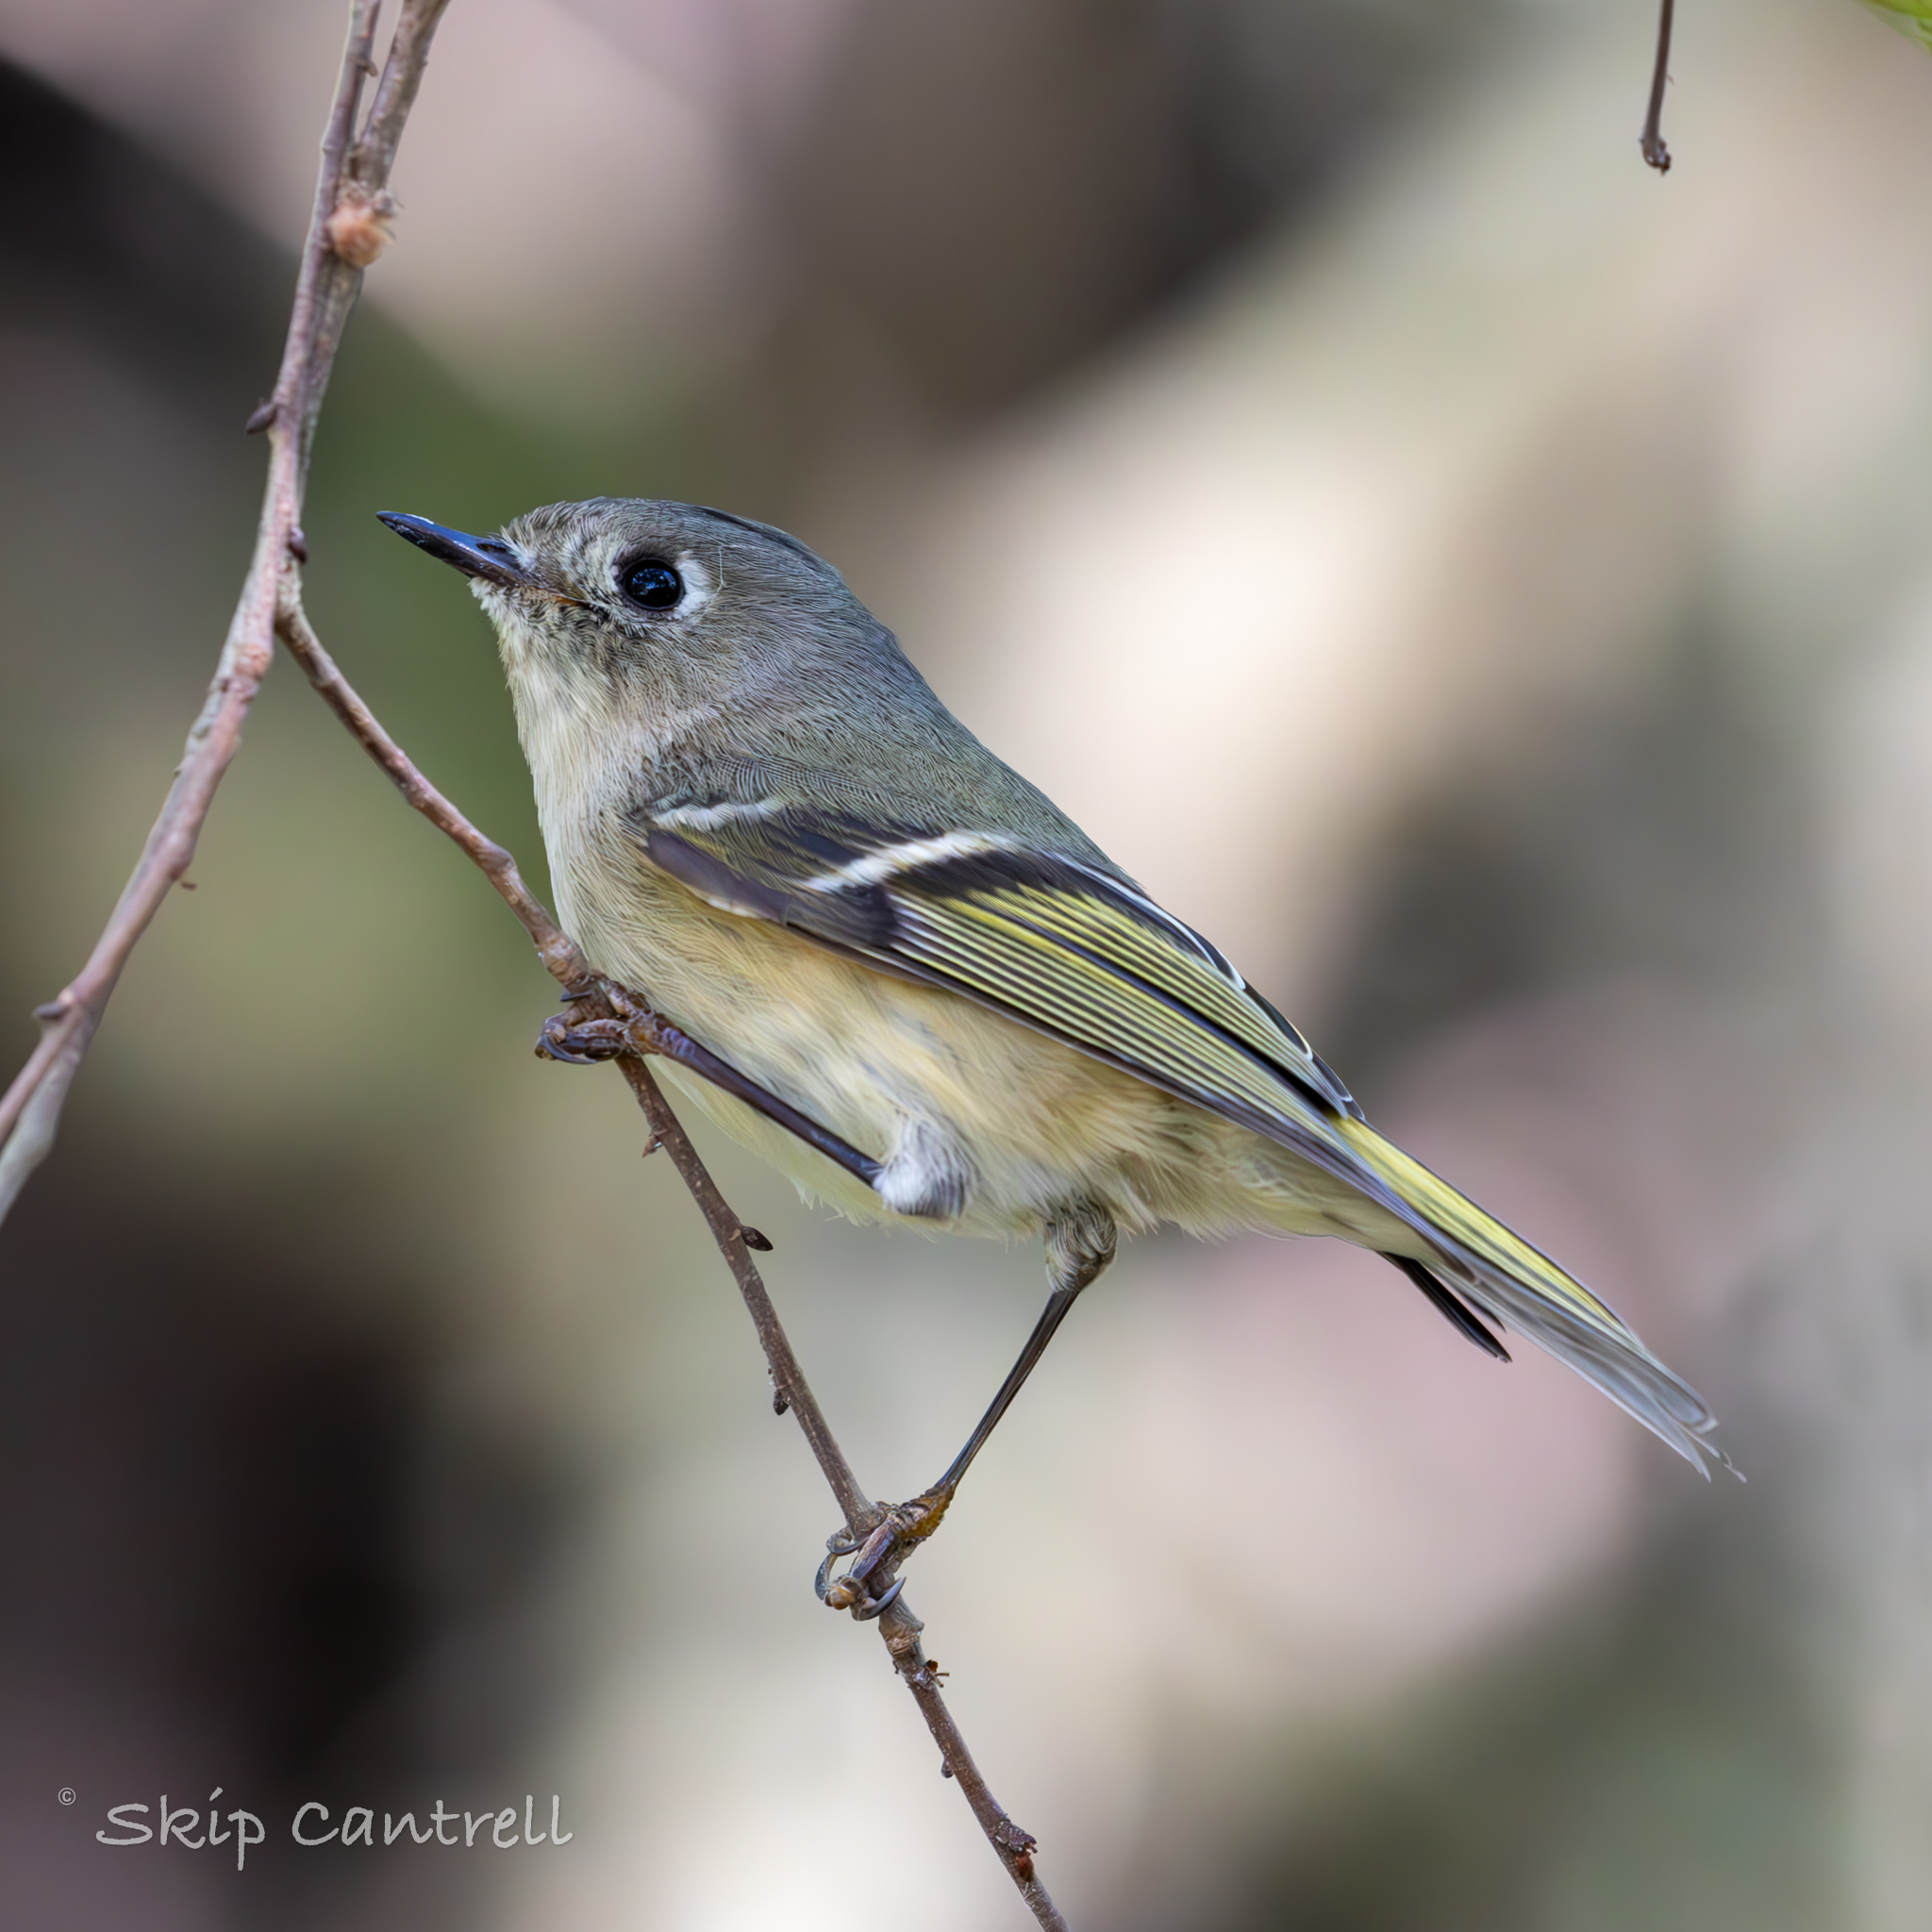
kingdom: Animalia
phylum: Chordata
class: Aves
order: Passeriformes
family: Regulidae
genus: Regulus
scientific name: Regulus calendula
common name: Ruby-crowned kinglet
